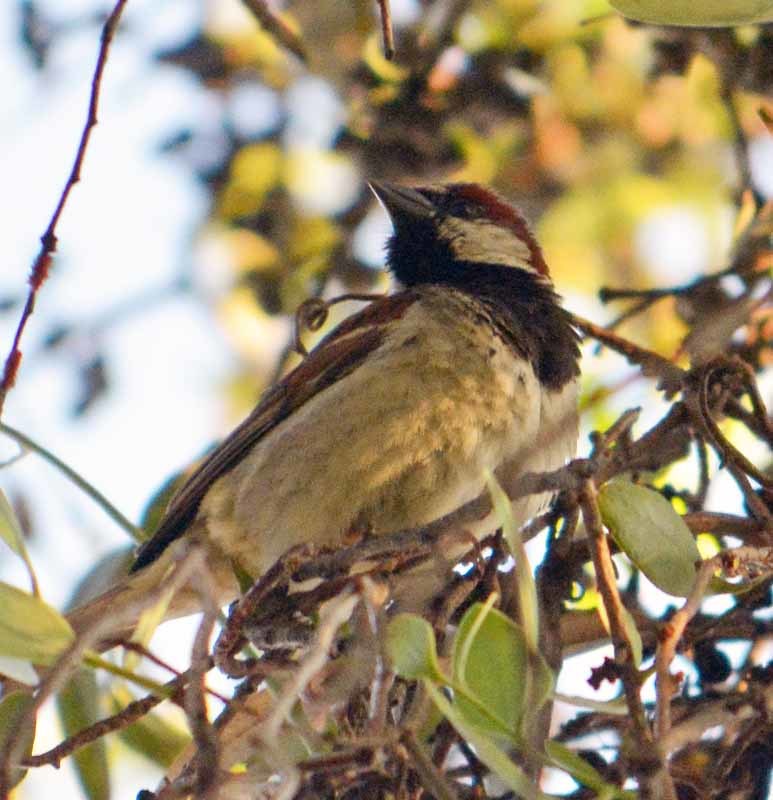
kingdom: Animalia
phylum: Chordata
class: Aves
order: Passeriformes
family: Passeridae
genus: Passer
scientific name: Passer domesticus
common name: House sparrow
